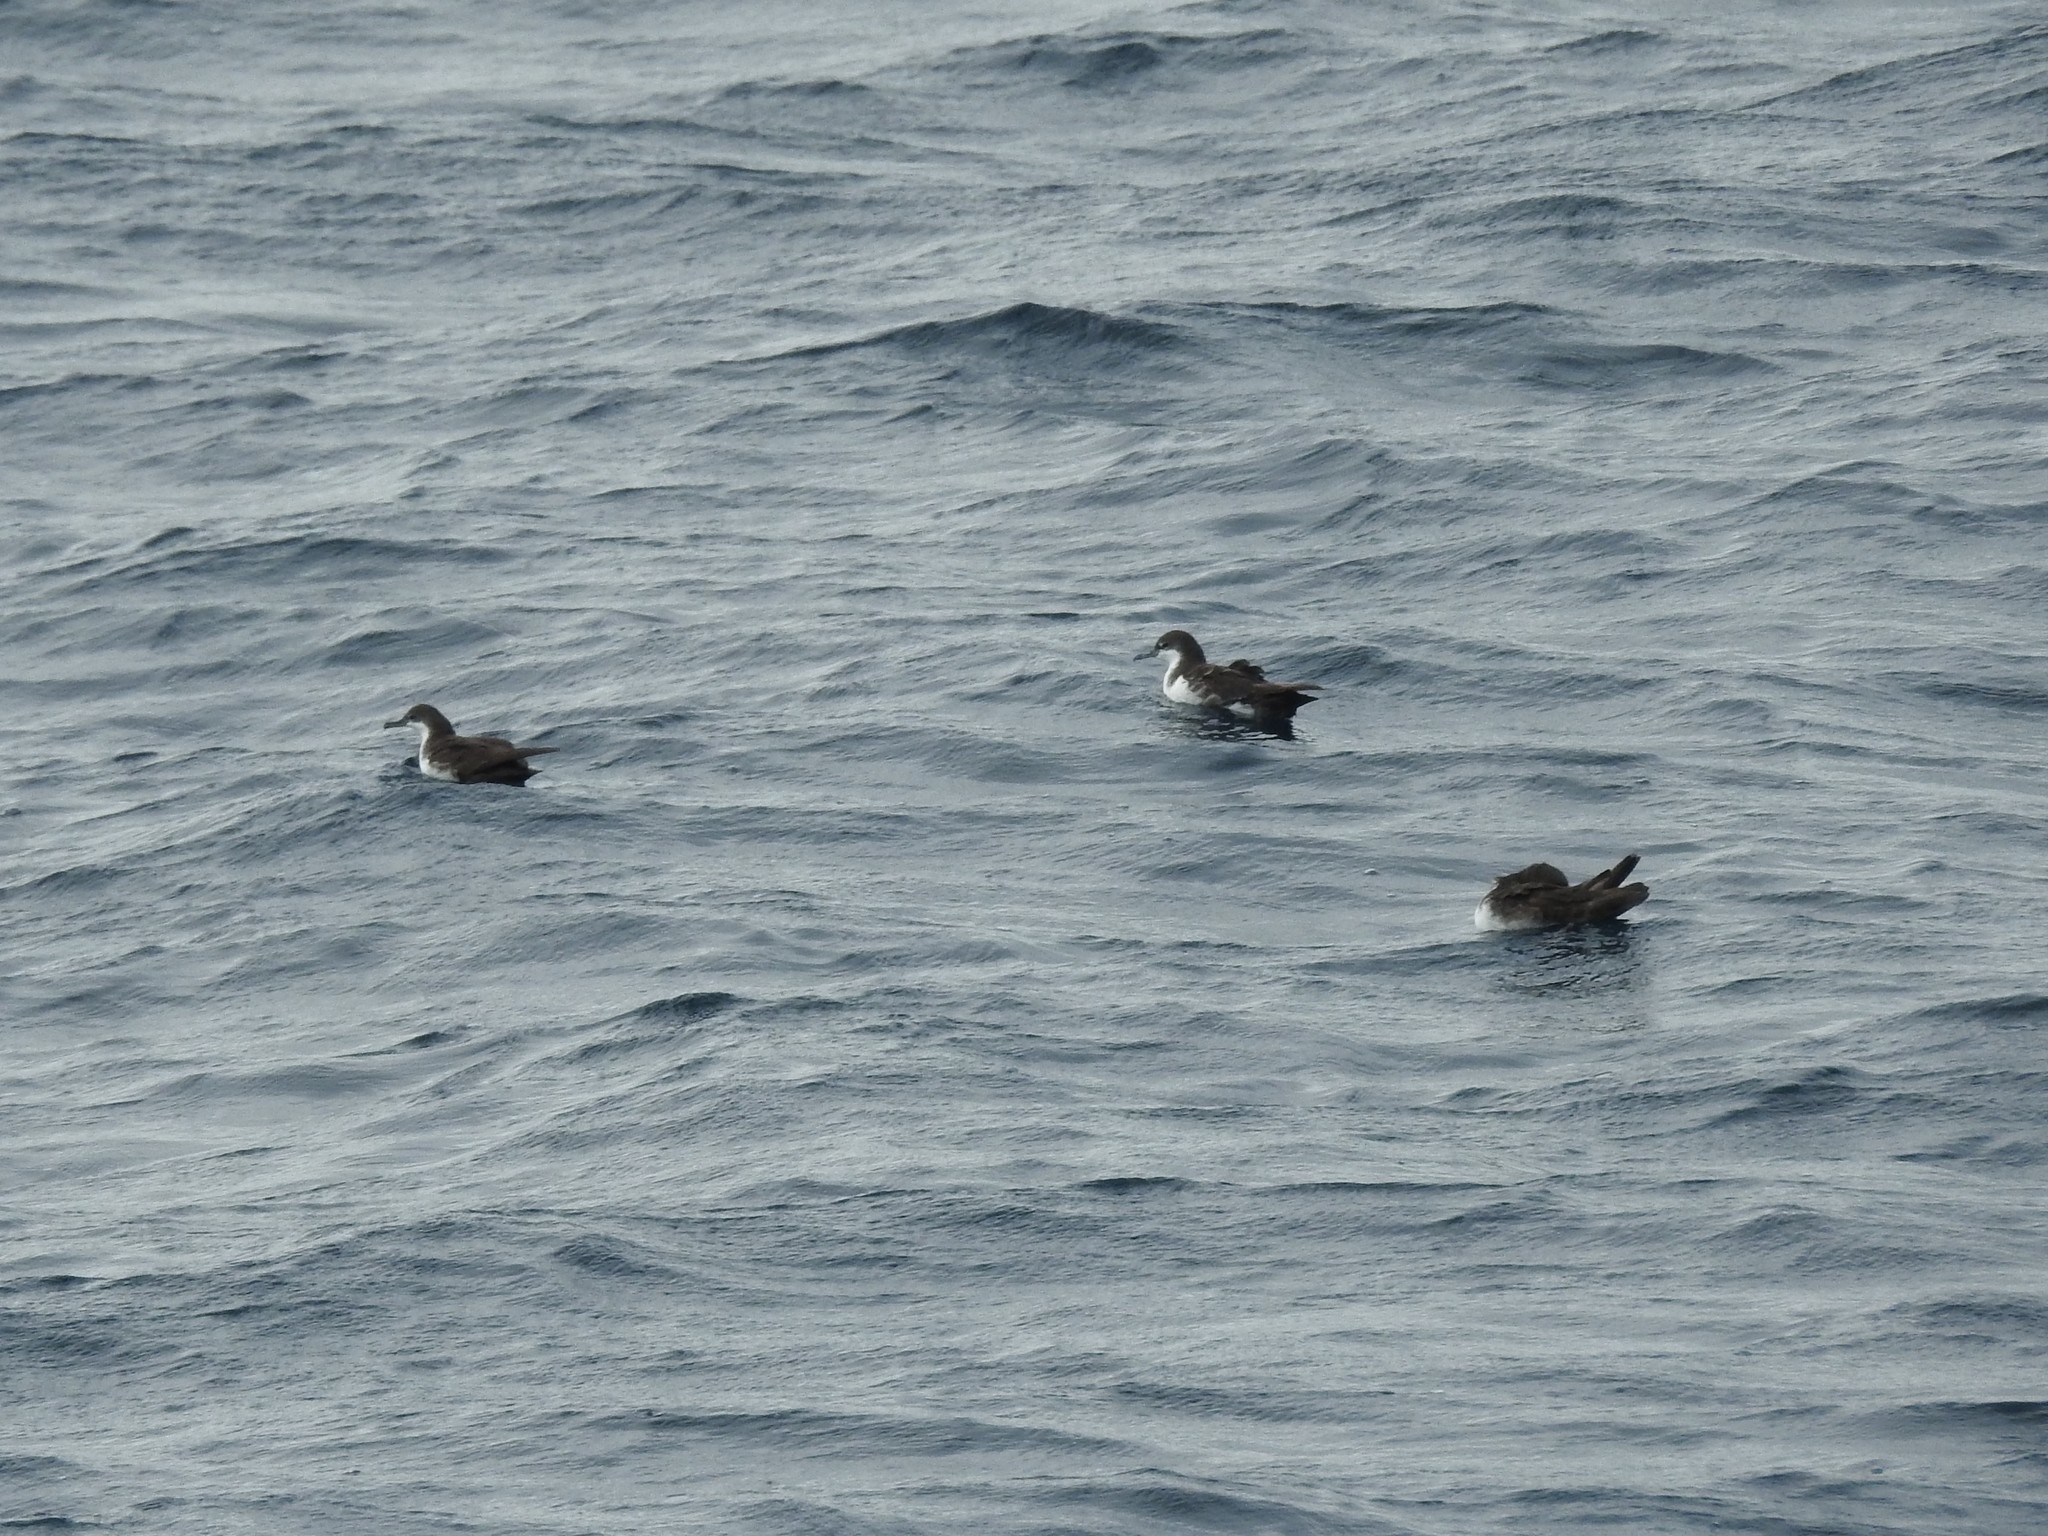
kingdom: Animalia
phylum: Chordata
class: Aves
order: Procellariiformes
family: Procellariidae
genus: Puffinus
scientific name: Puffinus subalaris
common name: Galapagos shearwater
